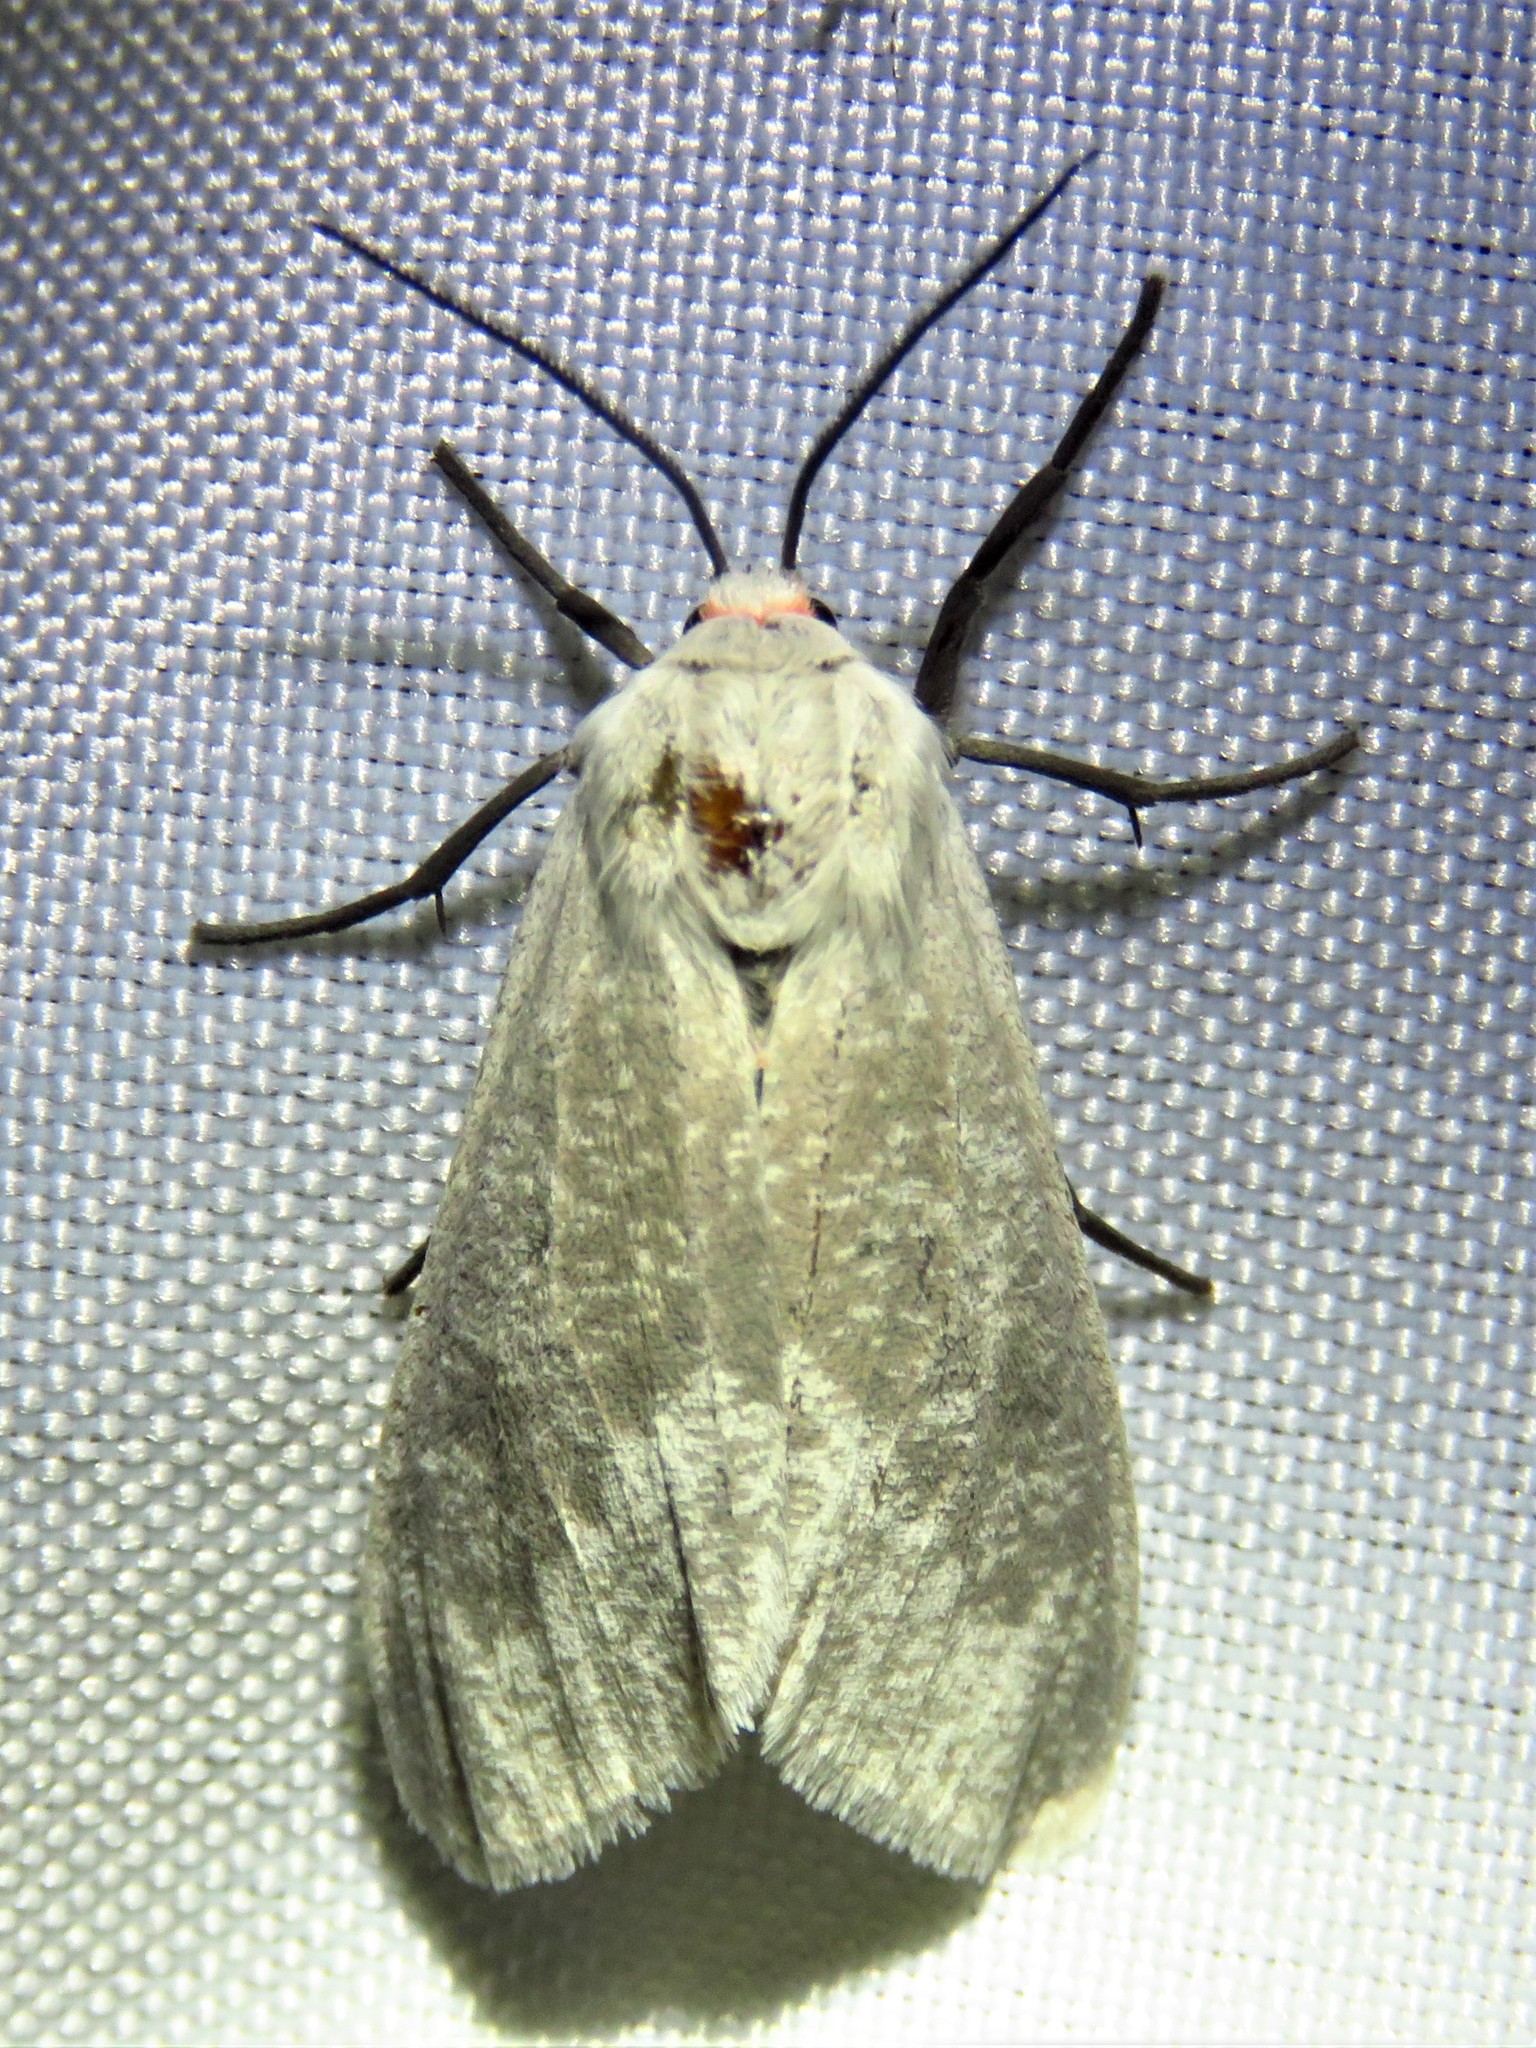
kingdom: Animalia
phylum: Arthropoda
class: Insecta
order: Lepidoptera
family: Erebidae
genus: Euchaetes
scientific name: Euchaetes bolteri
